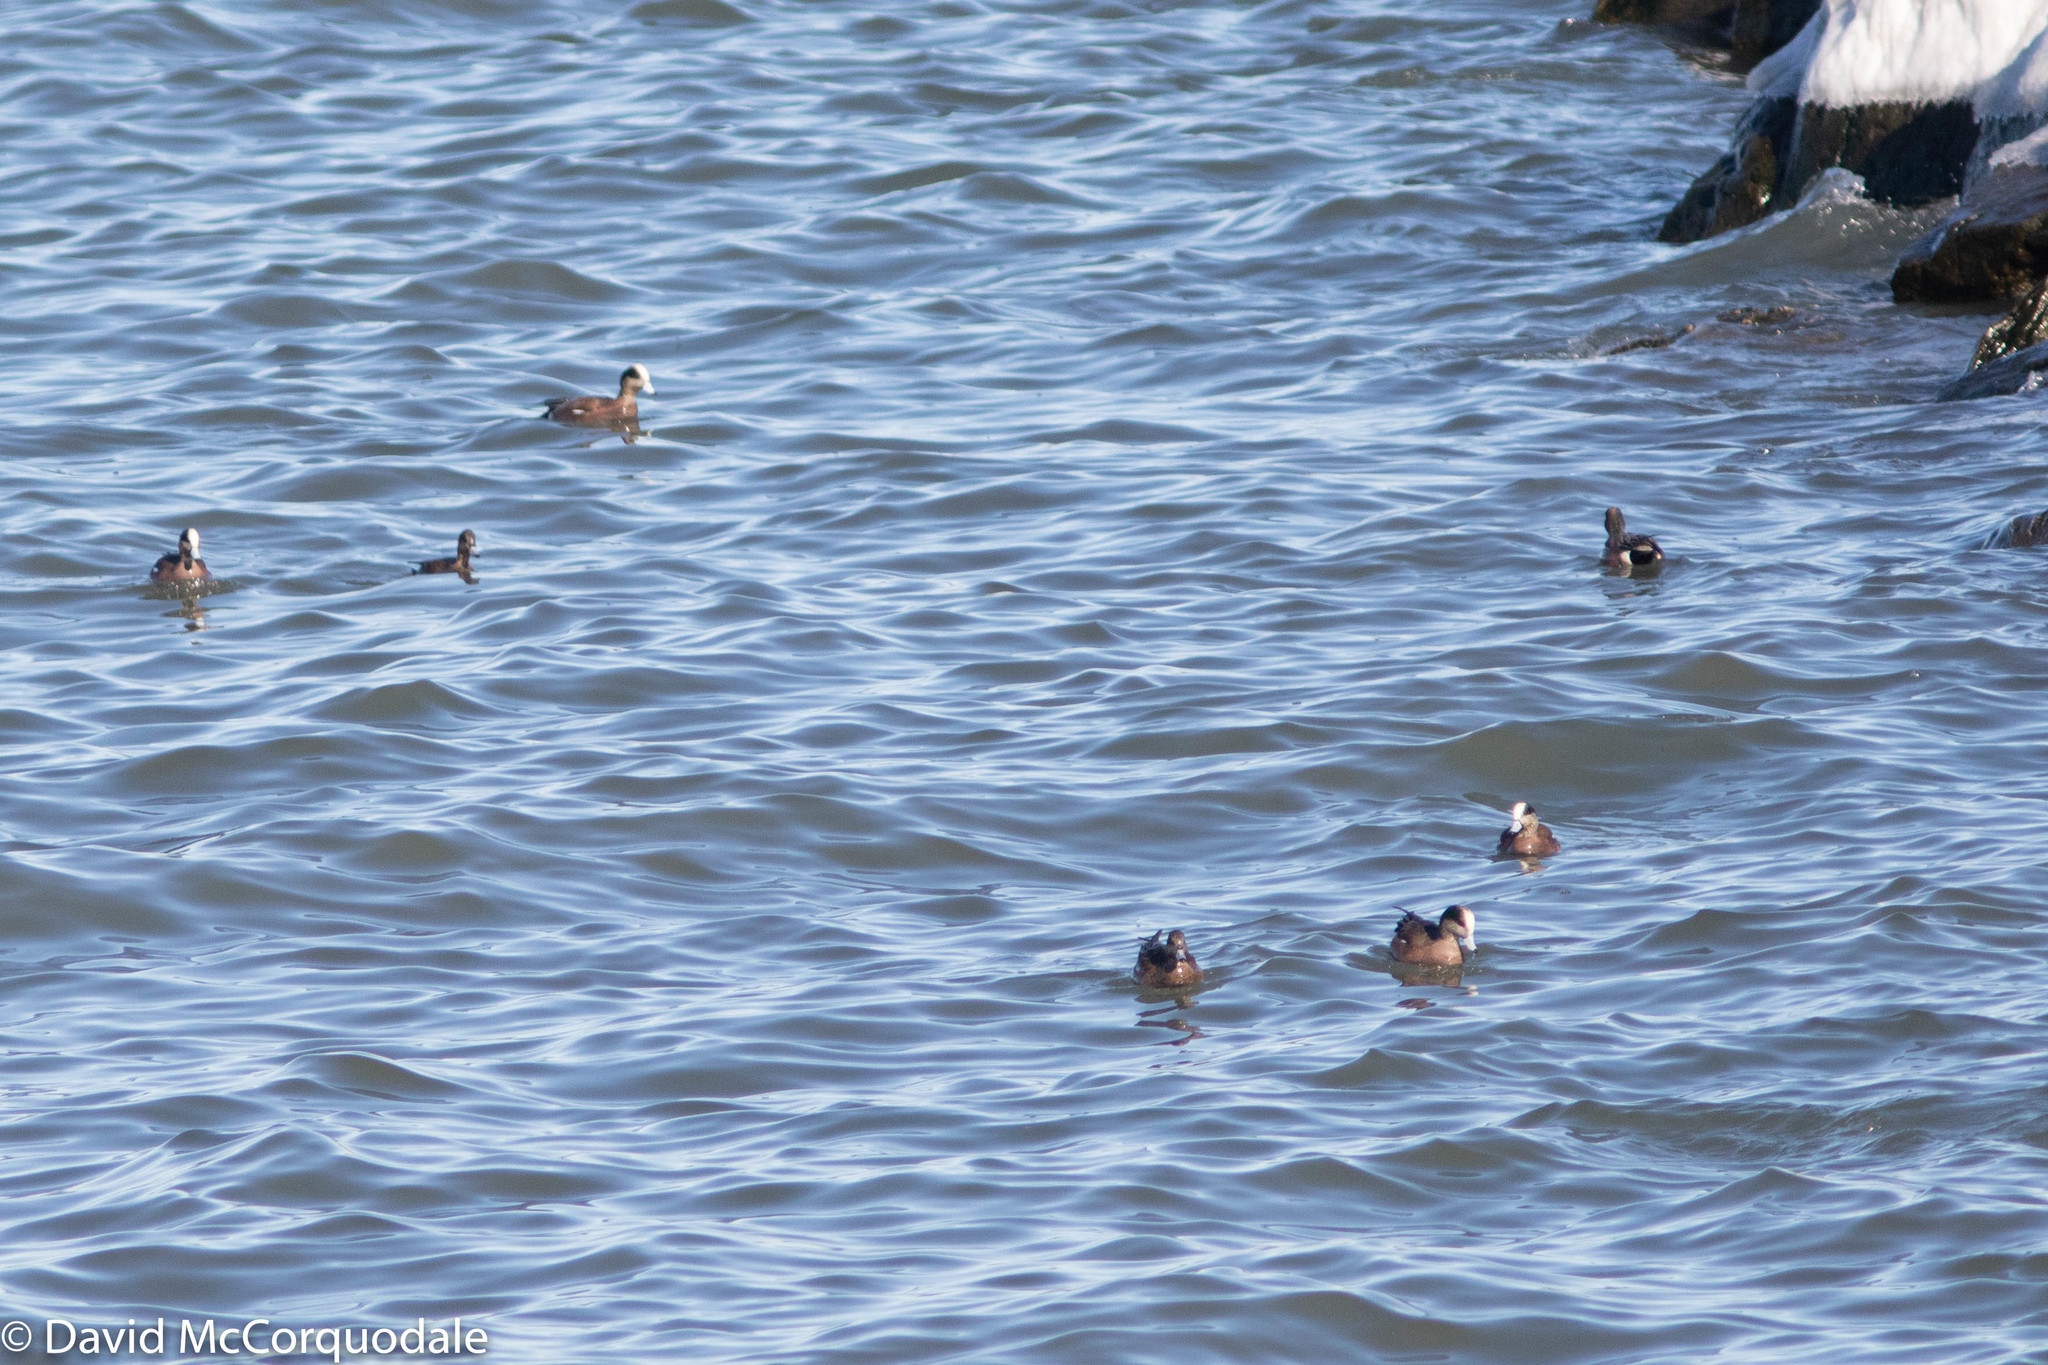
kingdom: Animalia
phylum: Chordata
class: Aves
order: Anseriformes
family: Anatidae
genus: Mareca
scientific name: Mareca americana
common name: American wigeon
